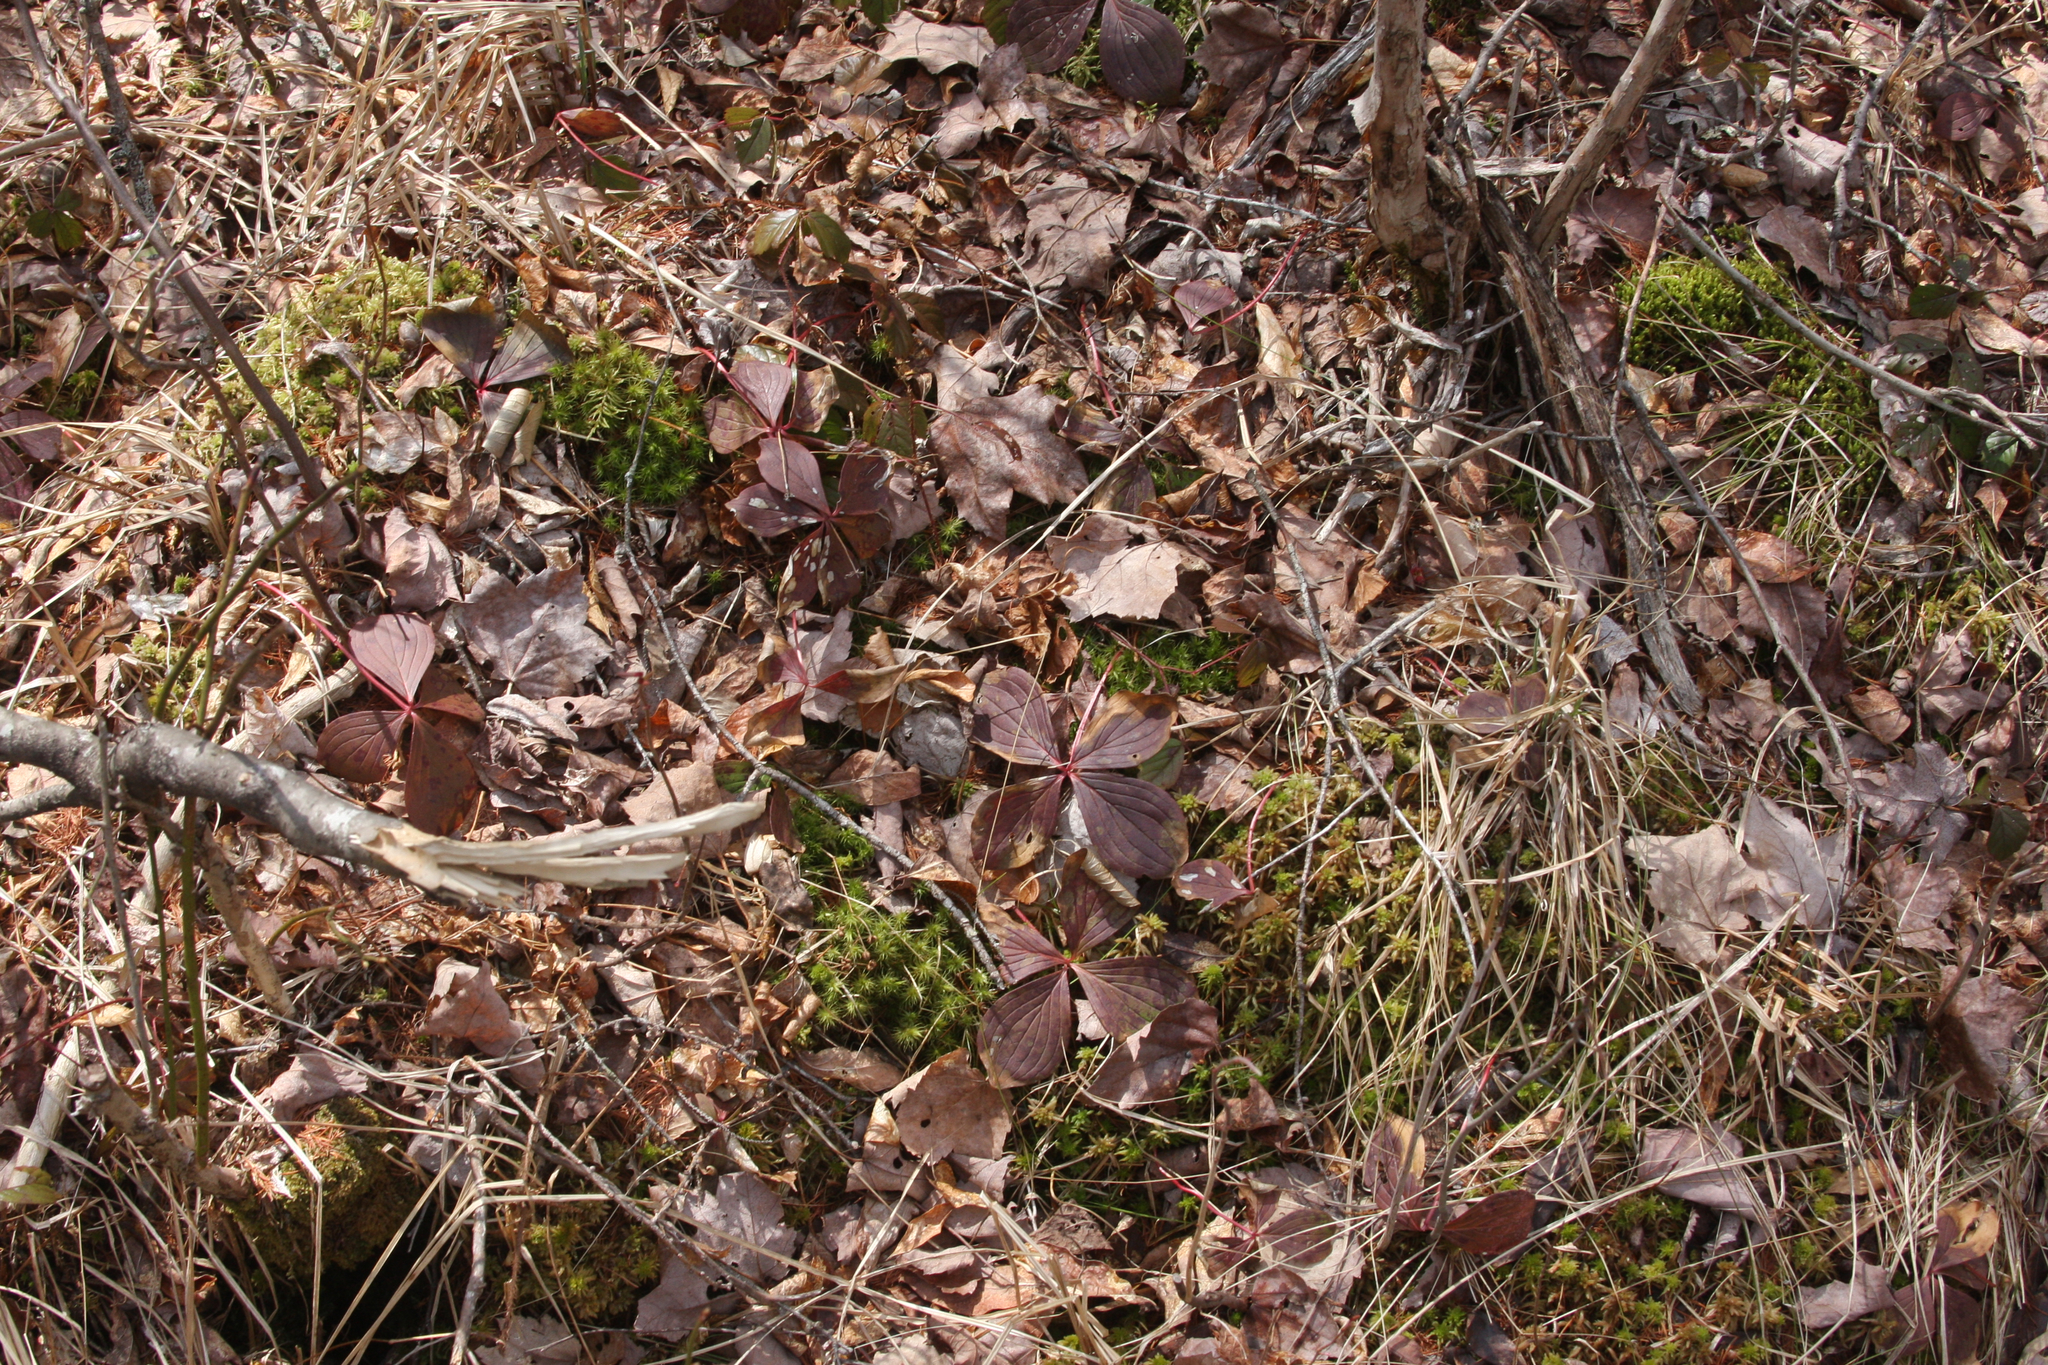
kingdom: Plantae
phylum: Tracheophyta
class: Magnoliopsida
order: Cornales
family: Cornaceae
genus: Cornus
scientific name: Cornus canadensis
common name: Creeping dogwood
